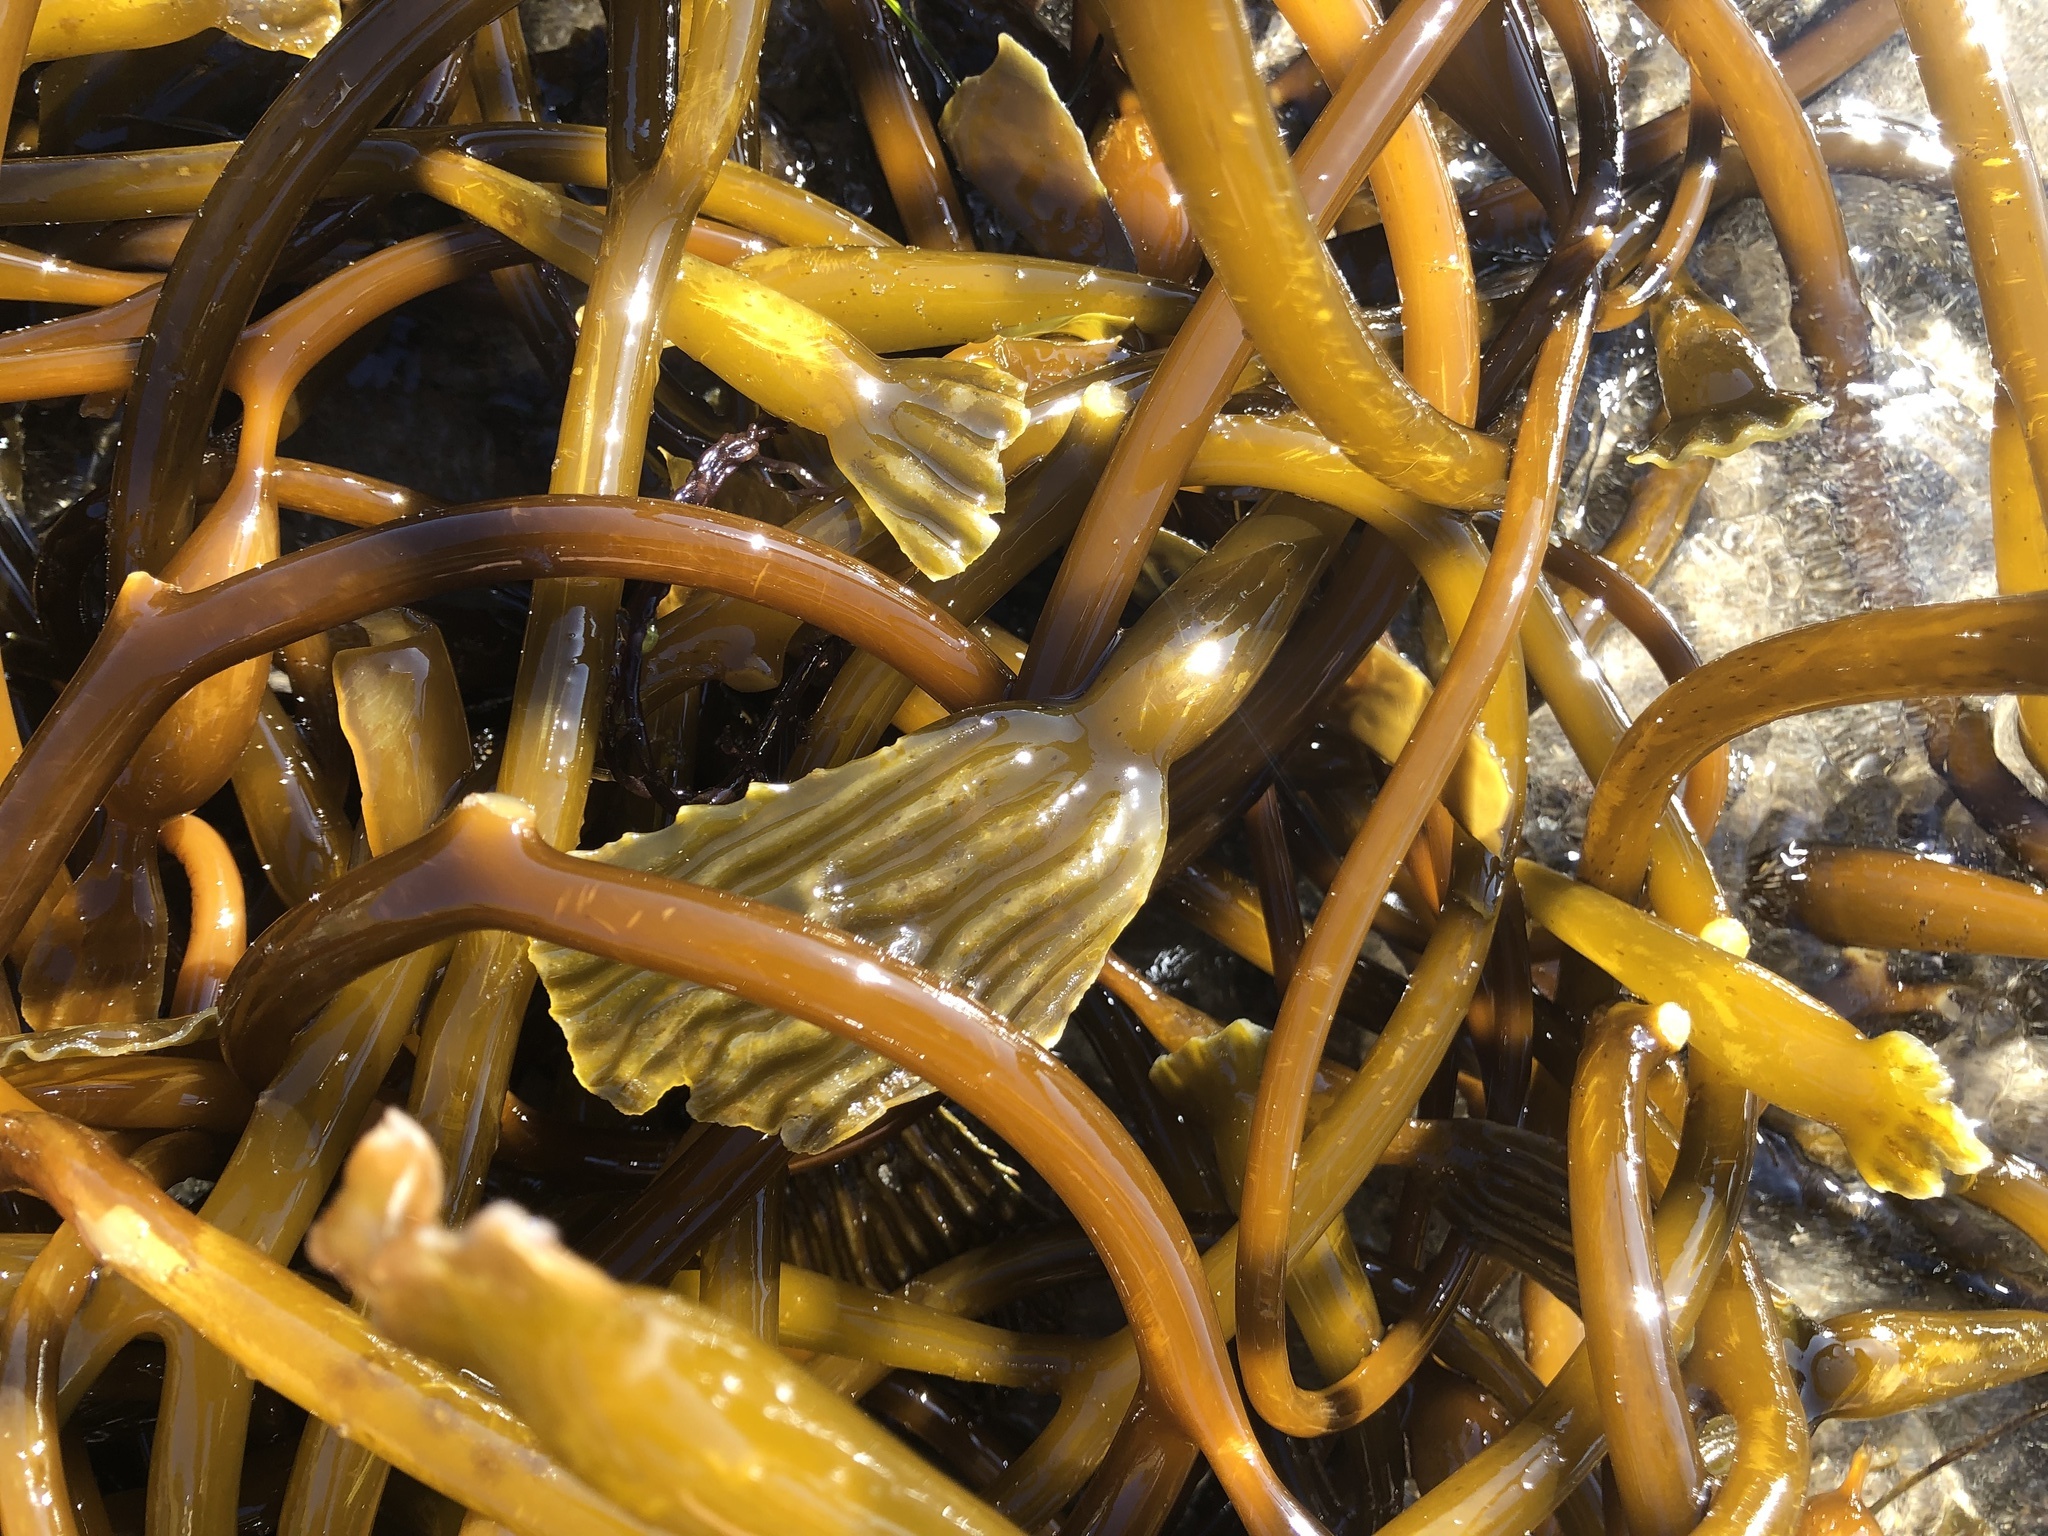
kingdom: Chromista
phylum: Ochrophyta
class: Phaeophyceae
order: Laminariales
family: Laminariaceae
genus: Macrocystis
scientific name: Macrocystis pyrifera
